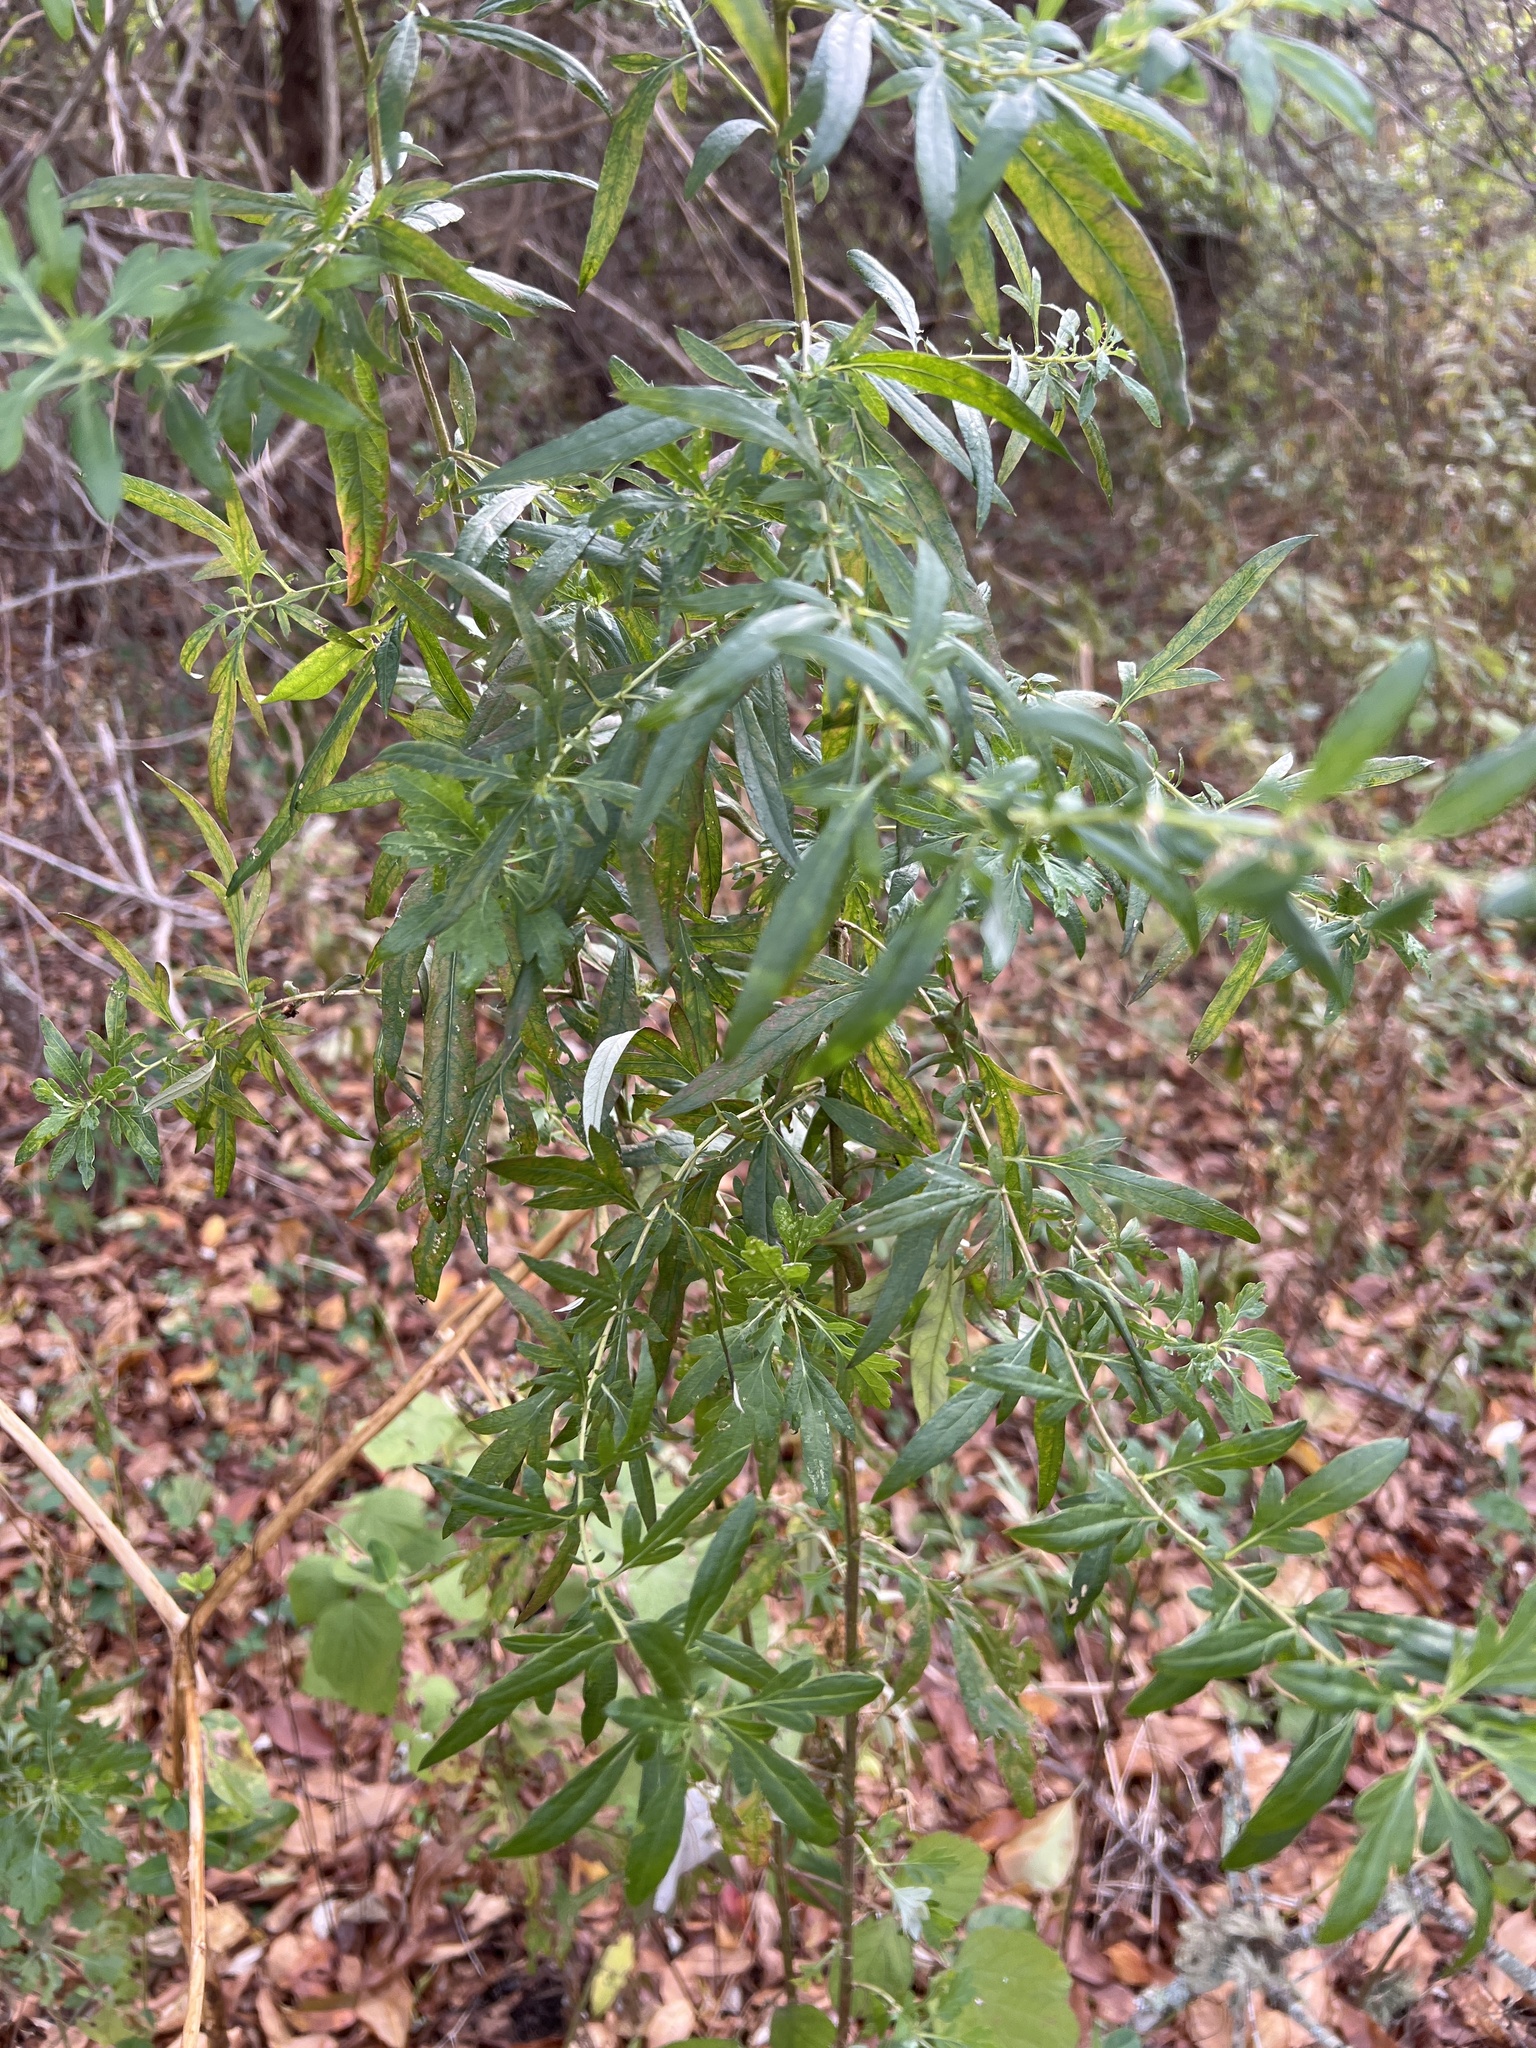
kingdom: Plantae
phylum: Tracheophyta
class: Magnoliopsida
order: Asterales
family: Asteraceae
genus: Artemisia
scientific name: Artemisia vulgaris
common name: Mugwort
